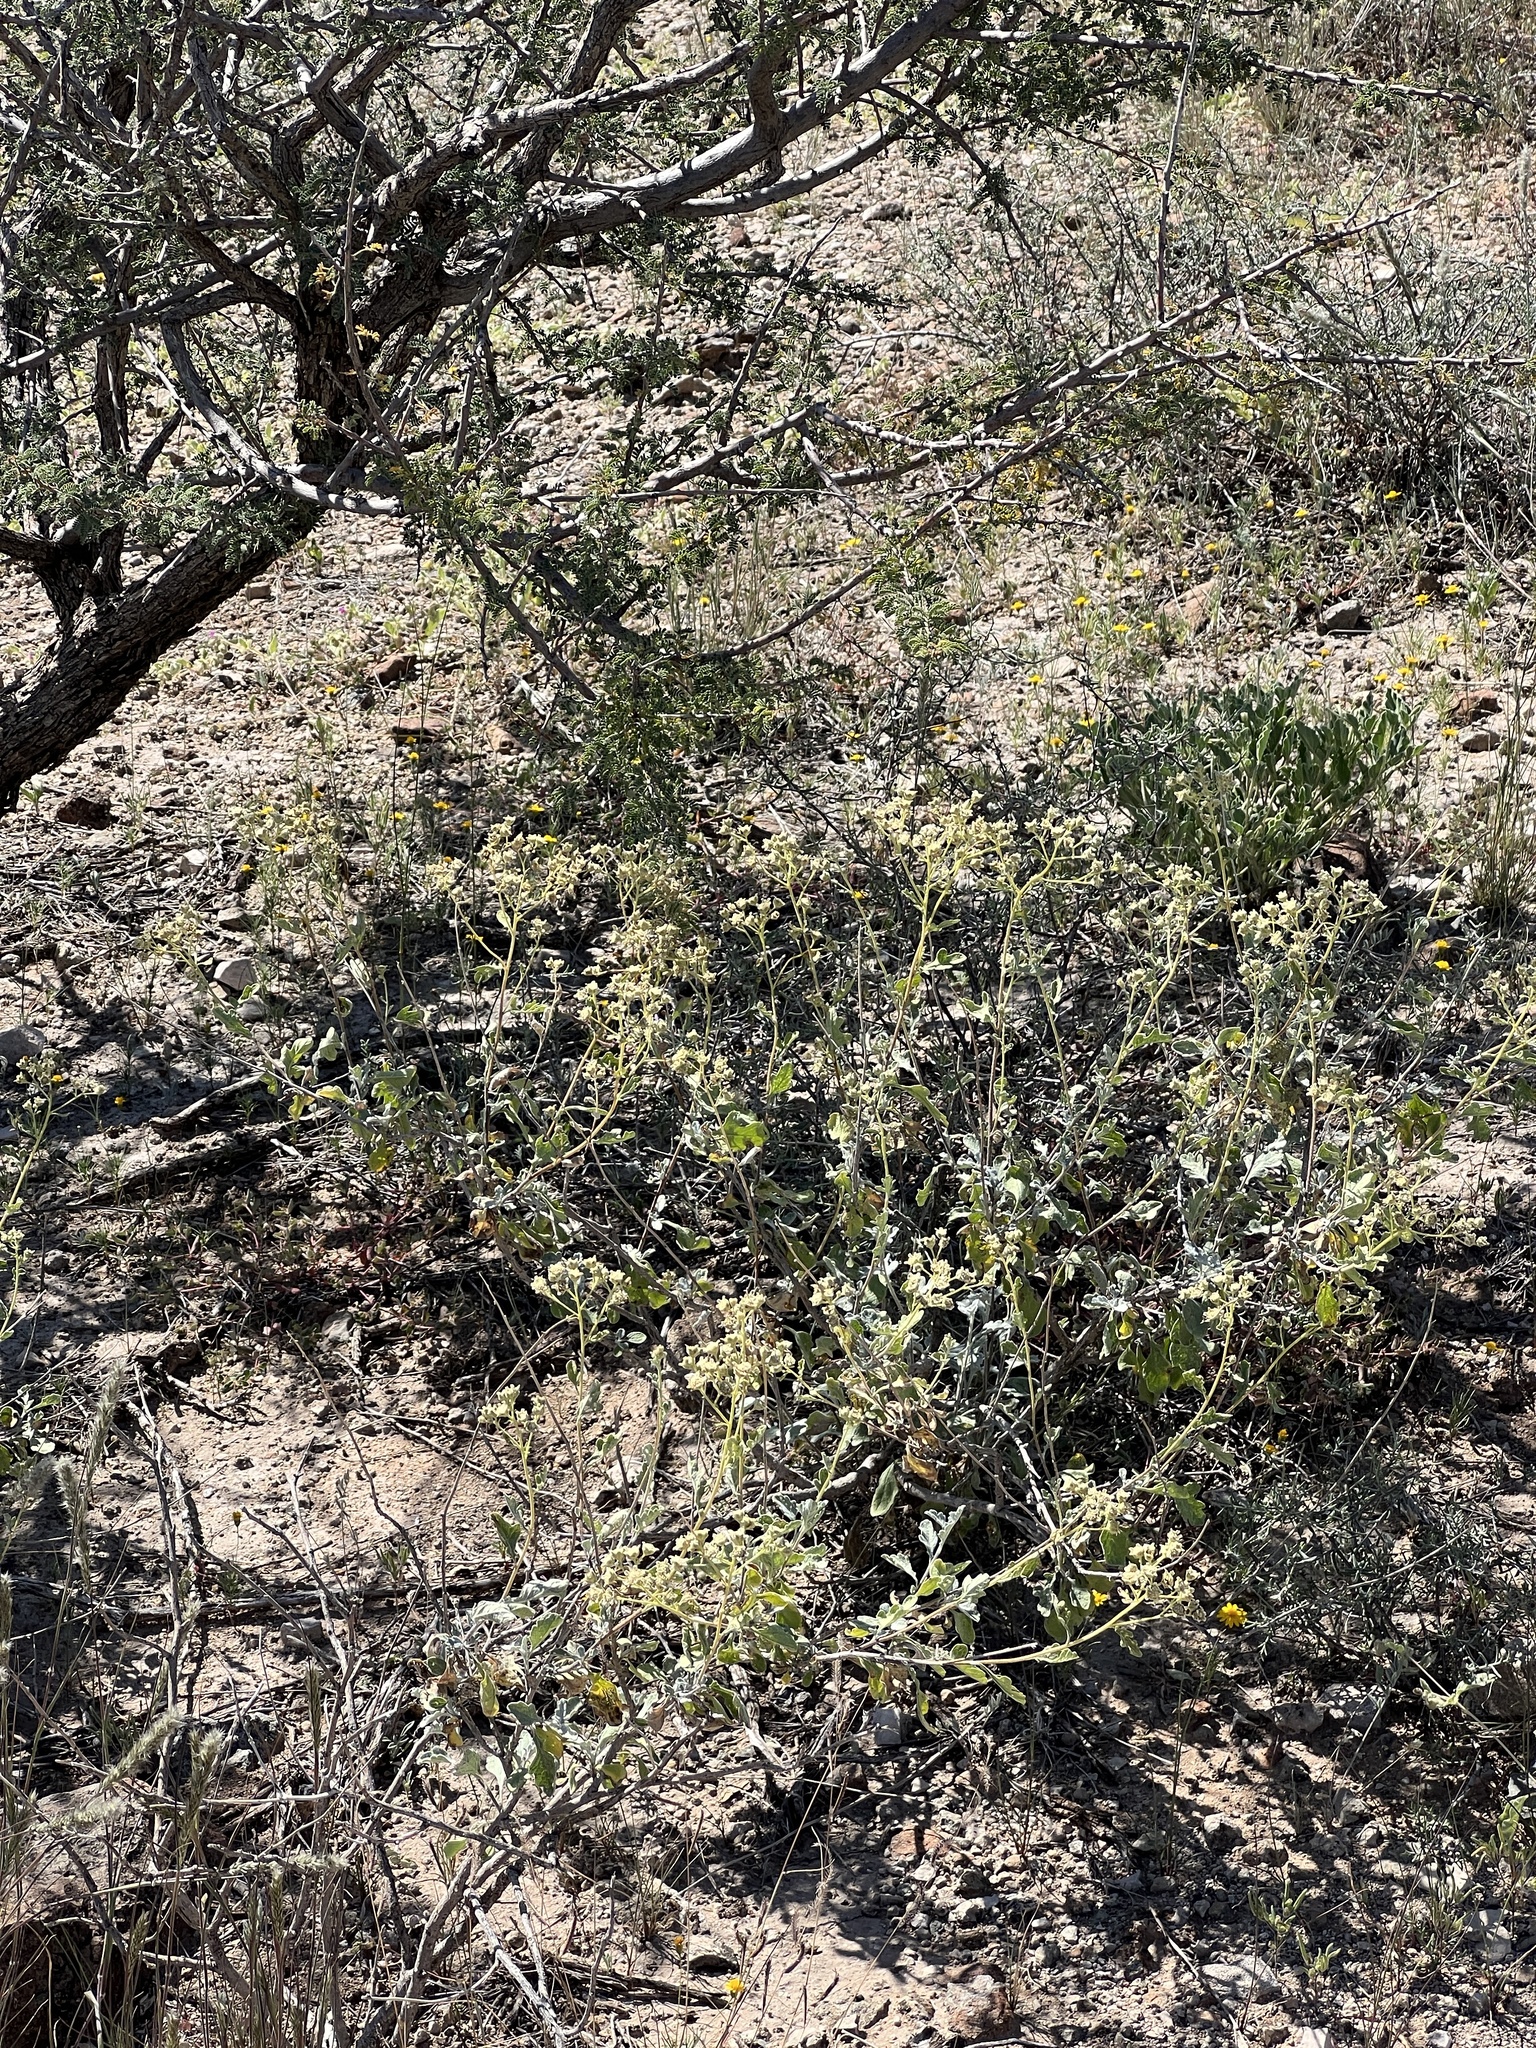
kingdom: Plantae
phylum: Tracheophyta
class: Magnoliopsida
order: Asterales
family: Asteraceae
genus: Parthenium
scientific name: Parthenium incanum
